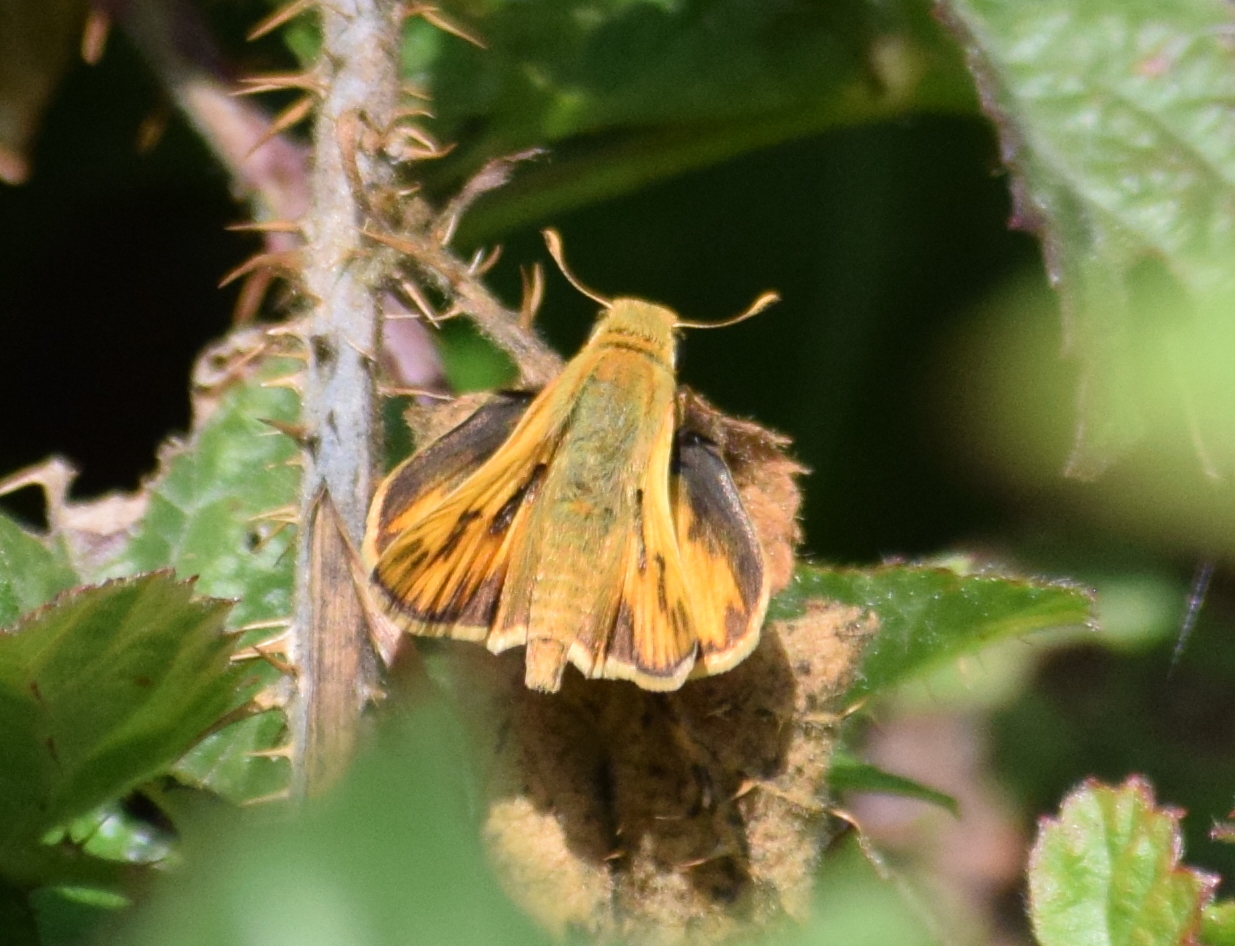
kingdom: Animalia
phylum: Arthropoda
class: Insecta
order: Lepidoptera
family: Hesperiidae
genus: Hylephila
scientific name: Hylephila phyleus
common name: Fiery skipper
